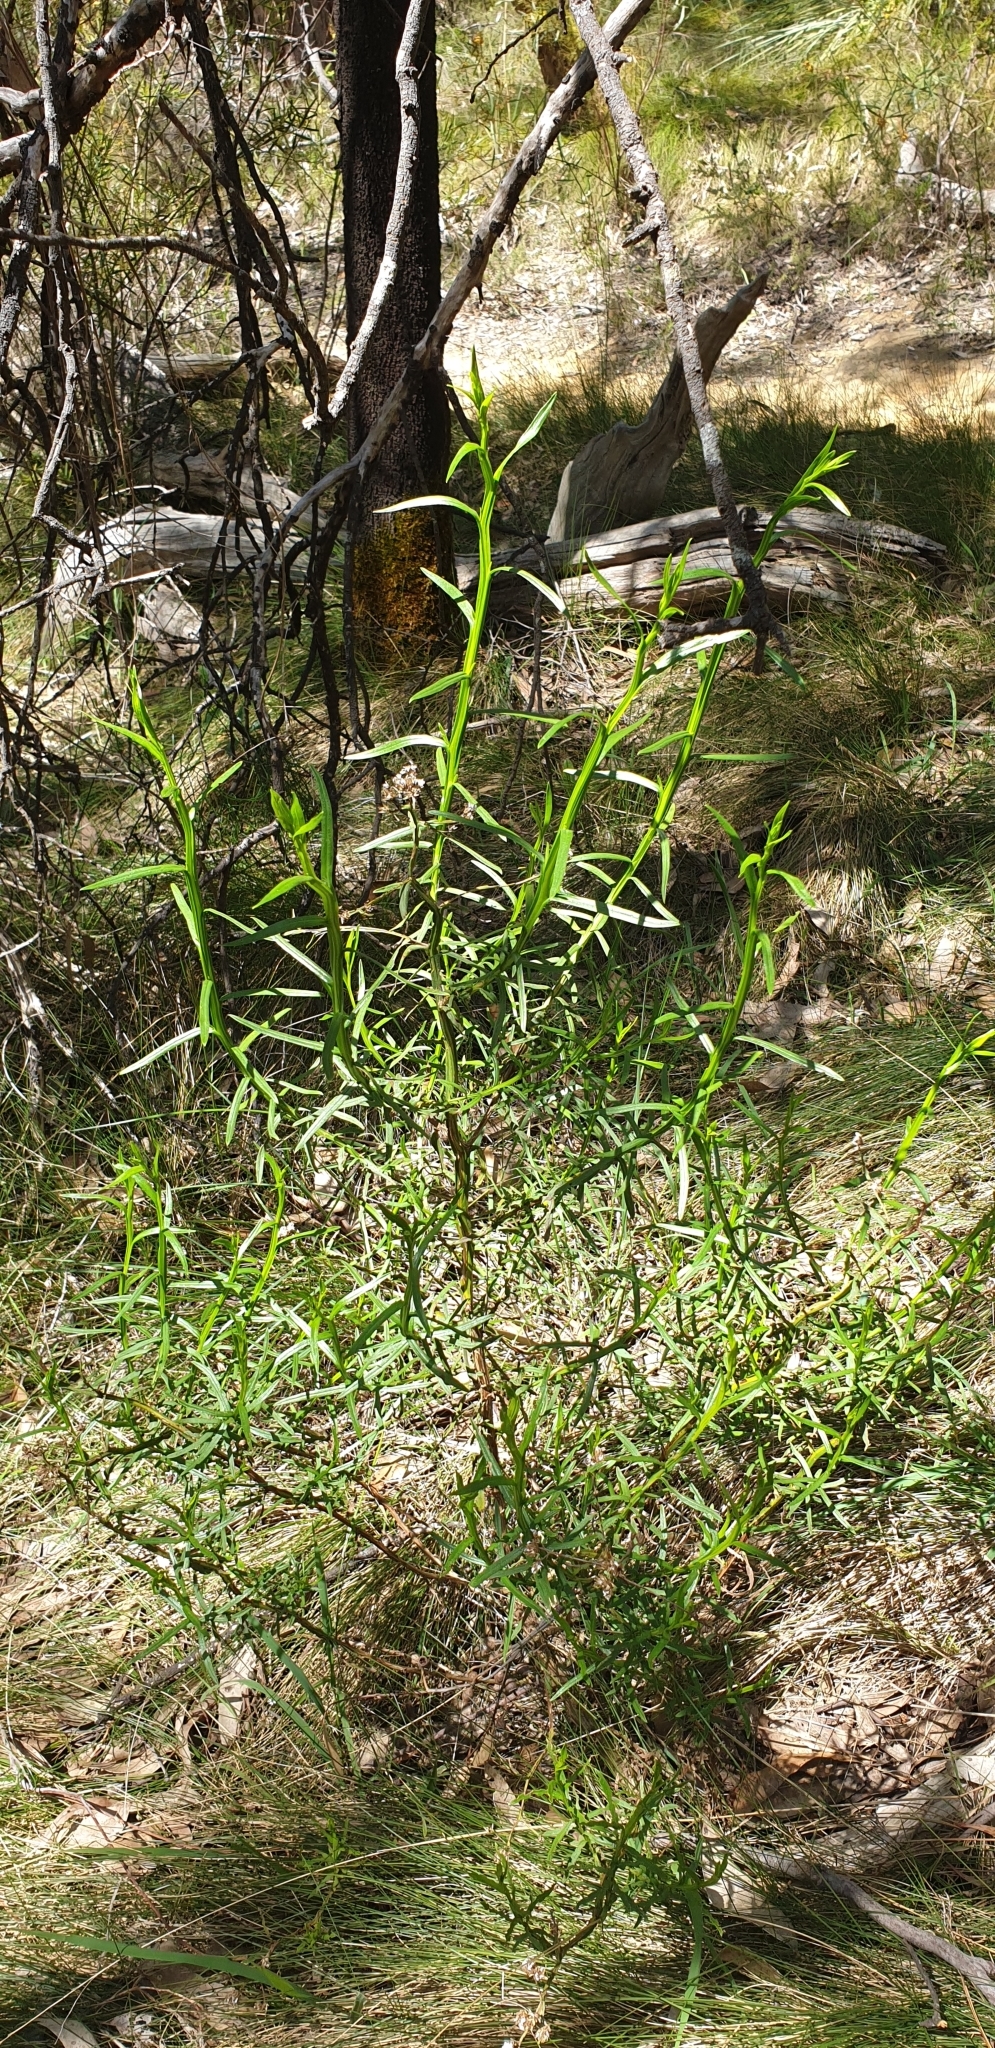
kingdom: Plantae
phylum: Tracheophyta
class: Magnoliopsida
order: Asterales
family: Asteraceae
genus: Ixodia
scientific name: Ixodia achillaeoides
